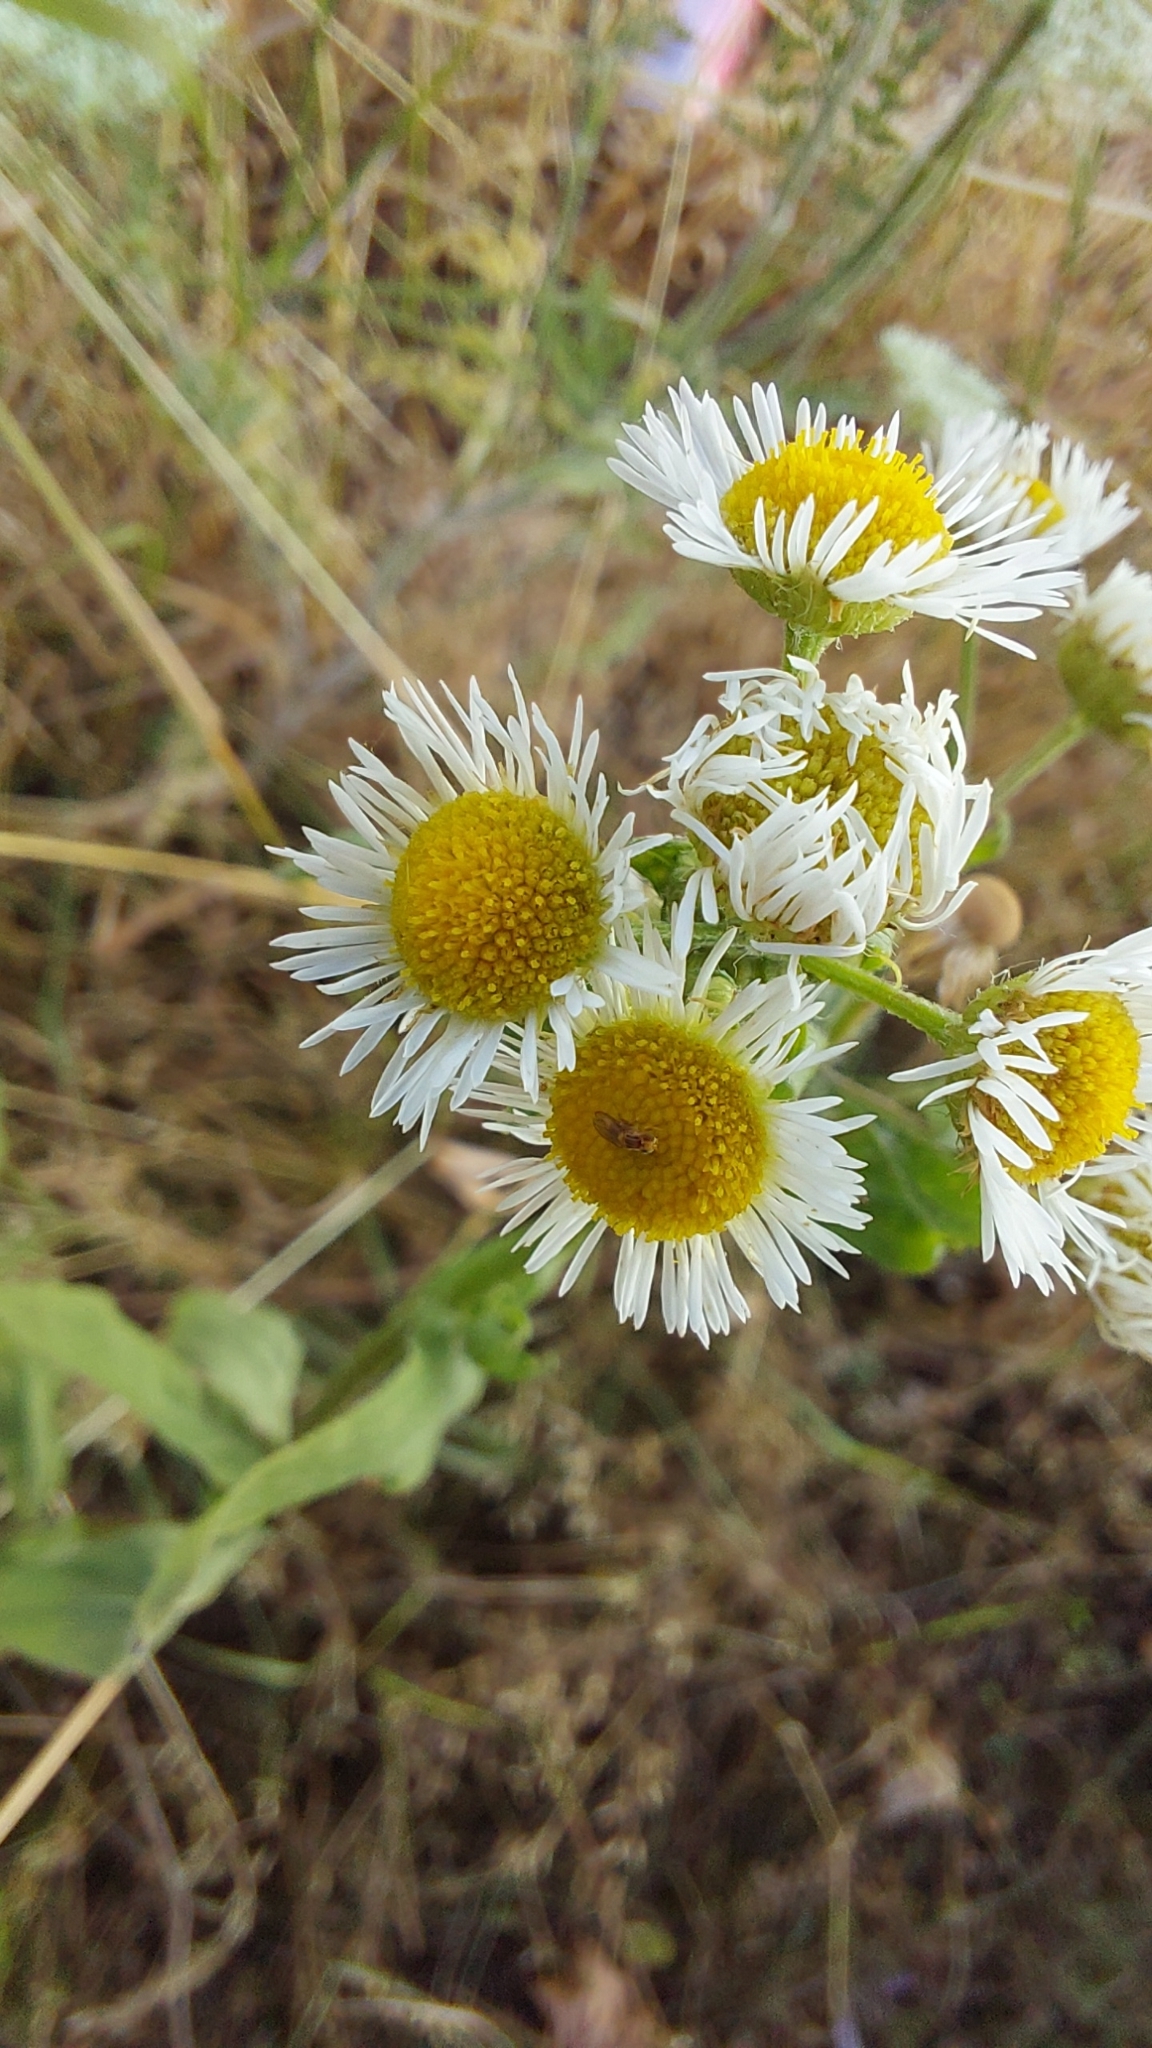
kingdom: Plantae
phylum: Tracheophyta
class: Magnoliopsida
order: Asterales
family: Asteraceae
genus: Erigeron
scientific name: Erigeron annuus
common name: Tall fleabane
